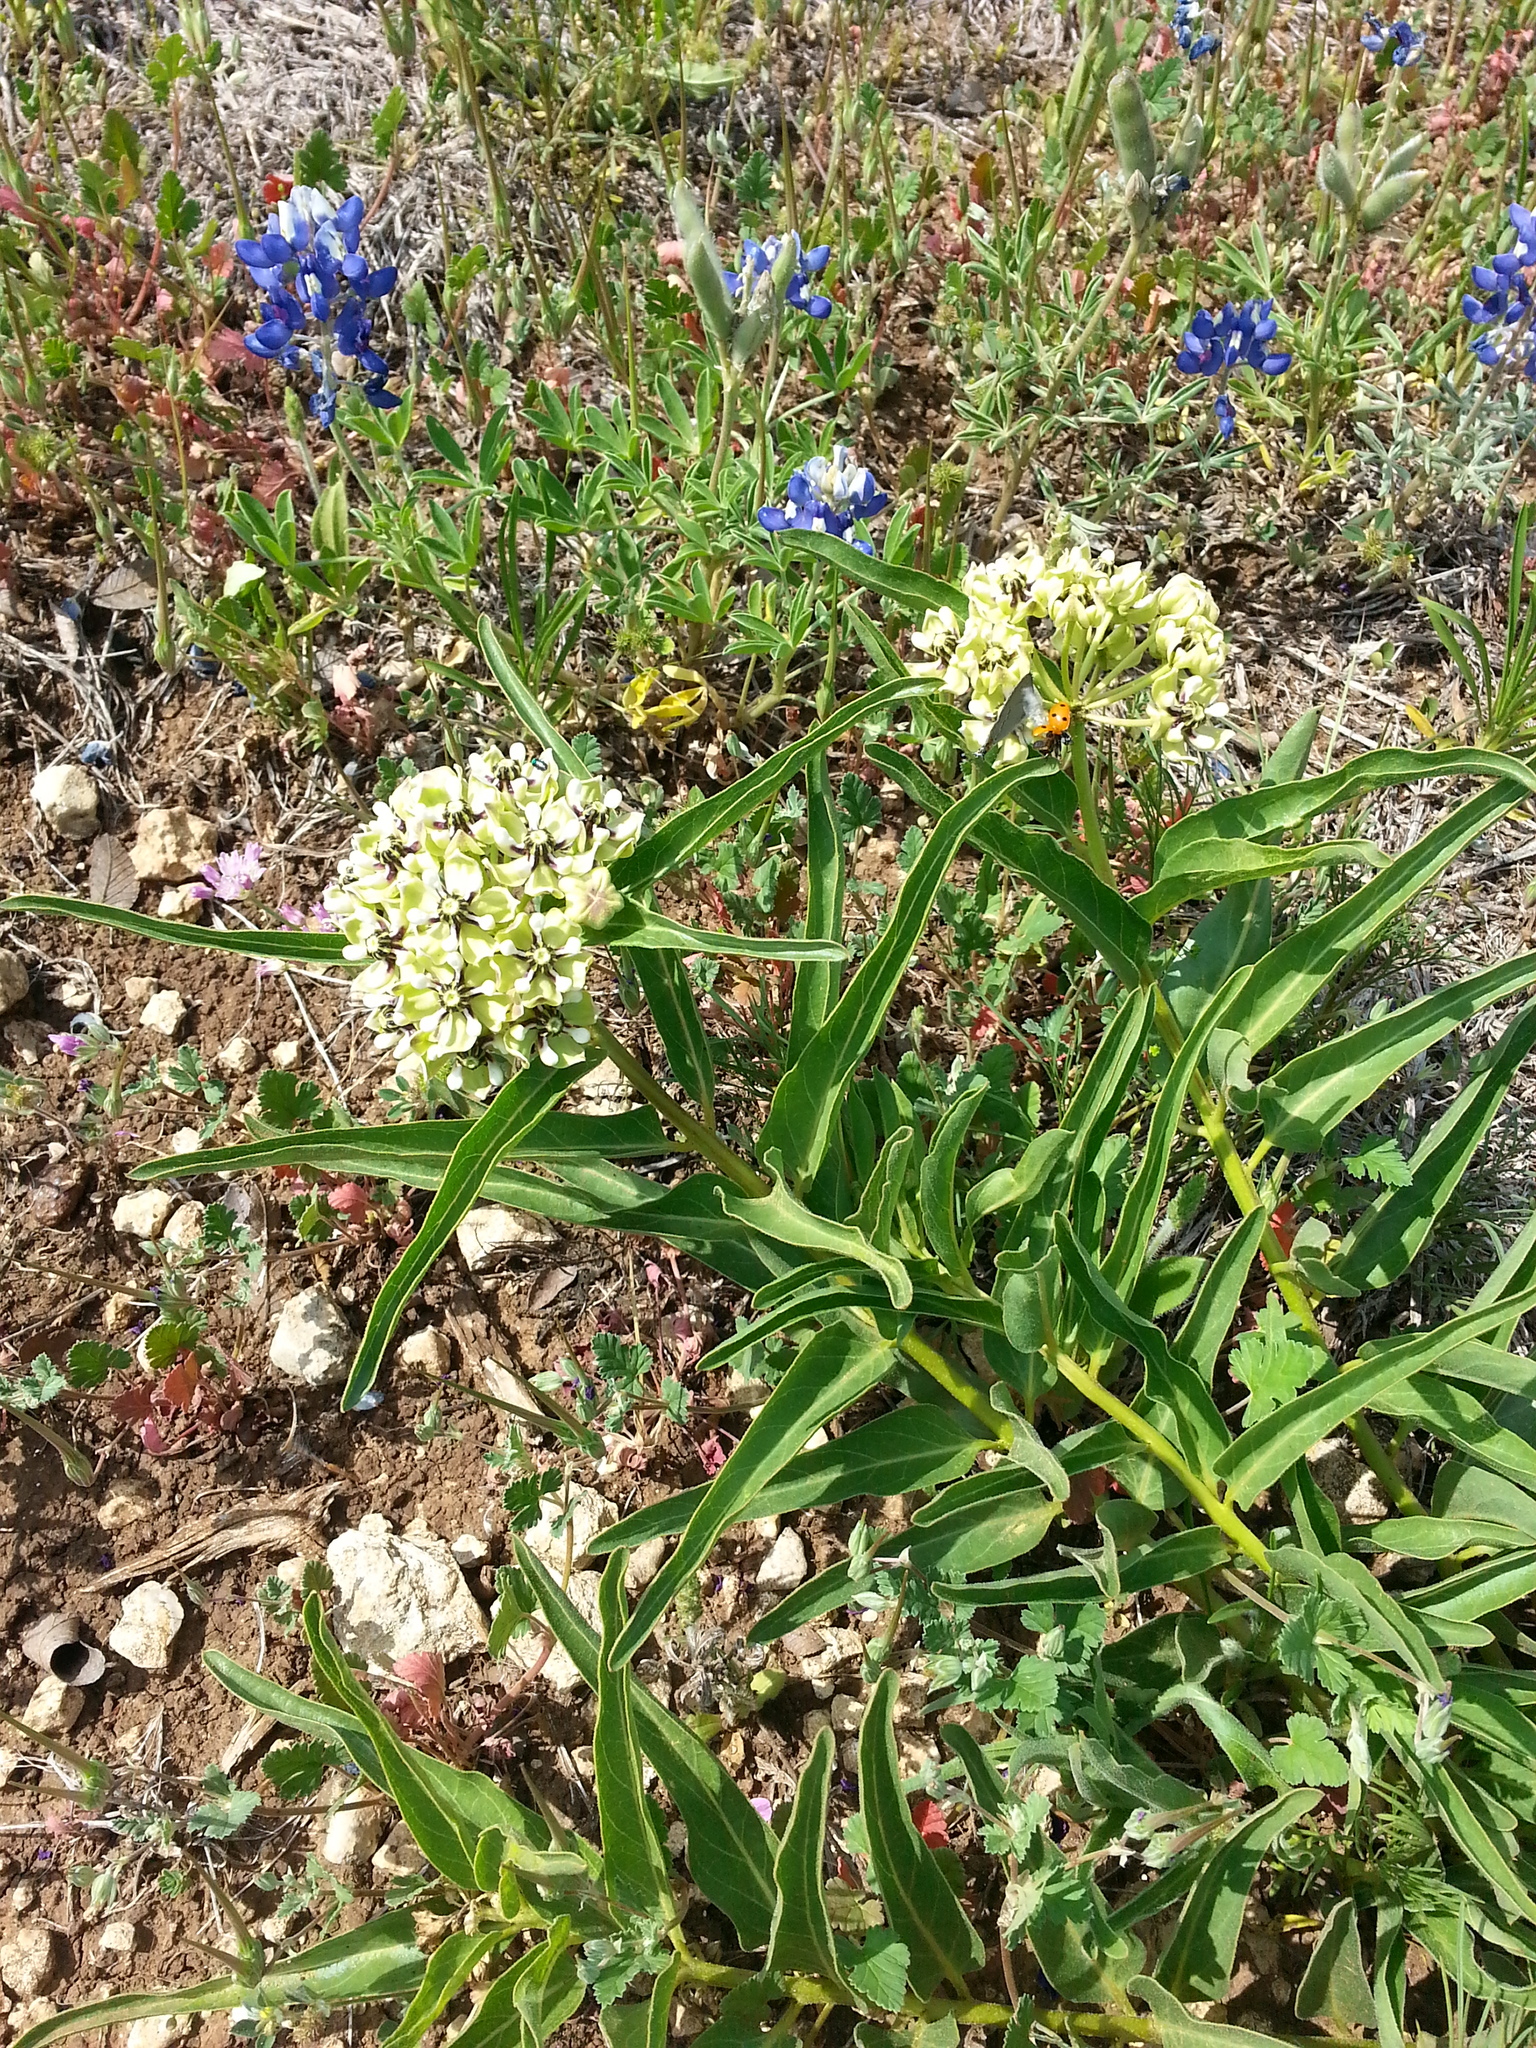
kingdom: Plantae
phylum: Tracheophyta
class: Magnoliopsida
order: Gentianales
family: Apocynaceae
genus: Asclepias
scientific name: Asclepias asperula
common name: Antelope horns
